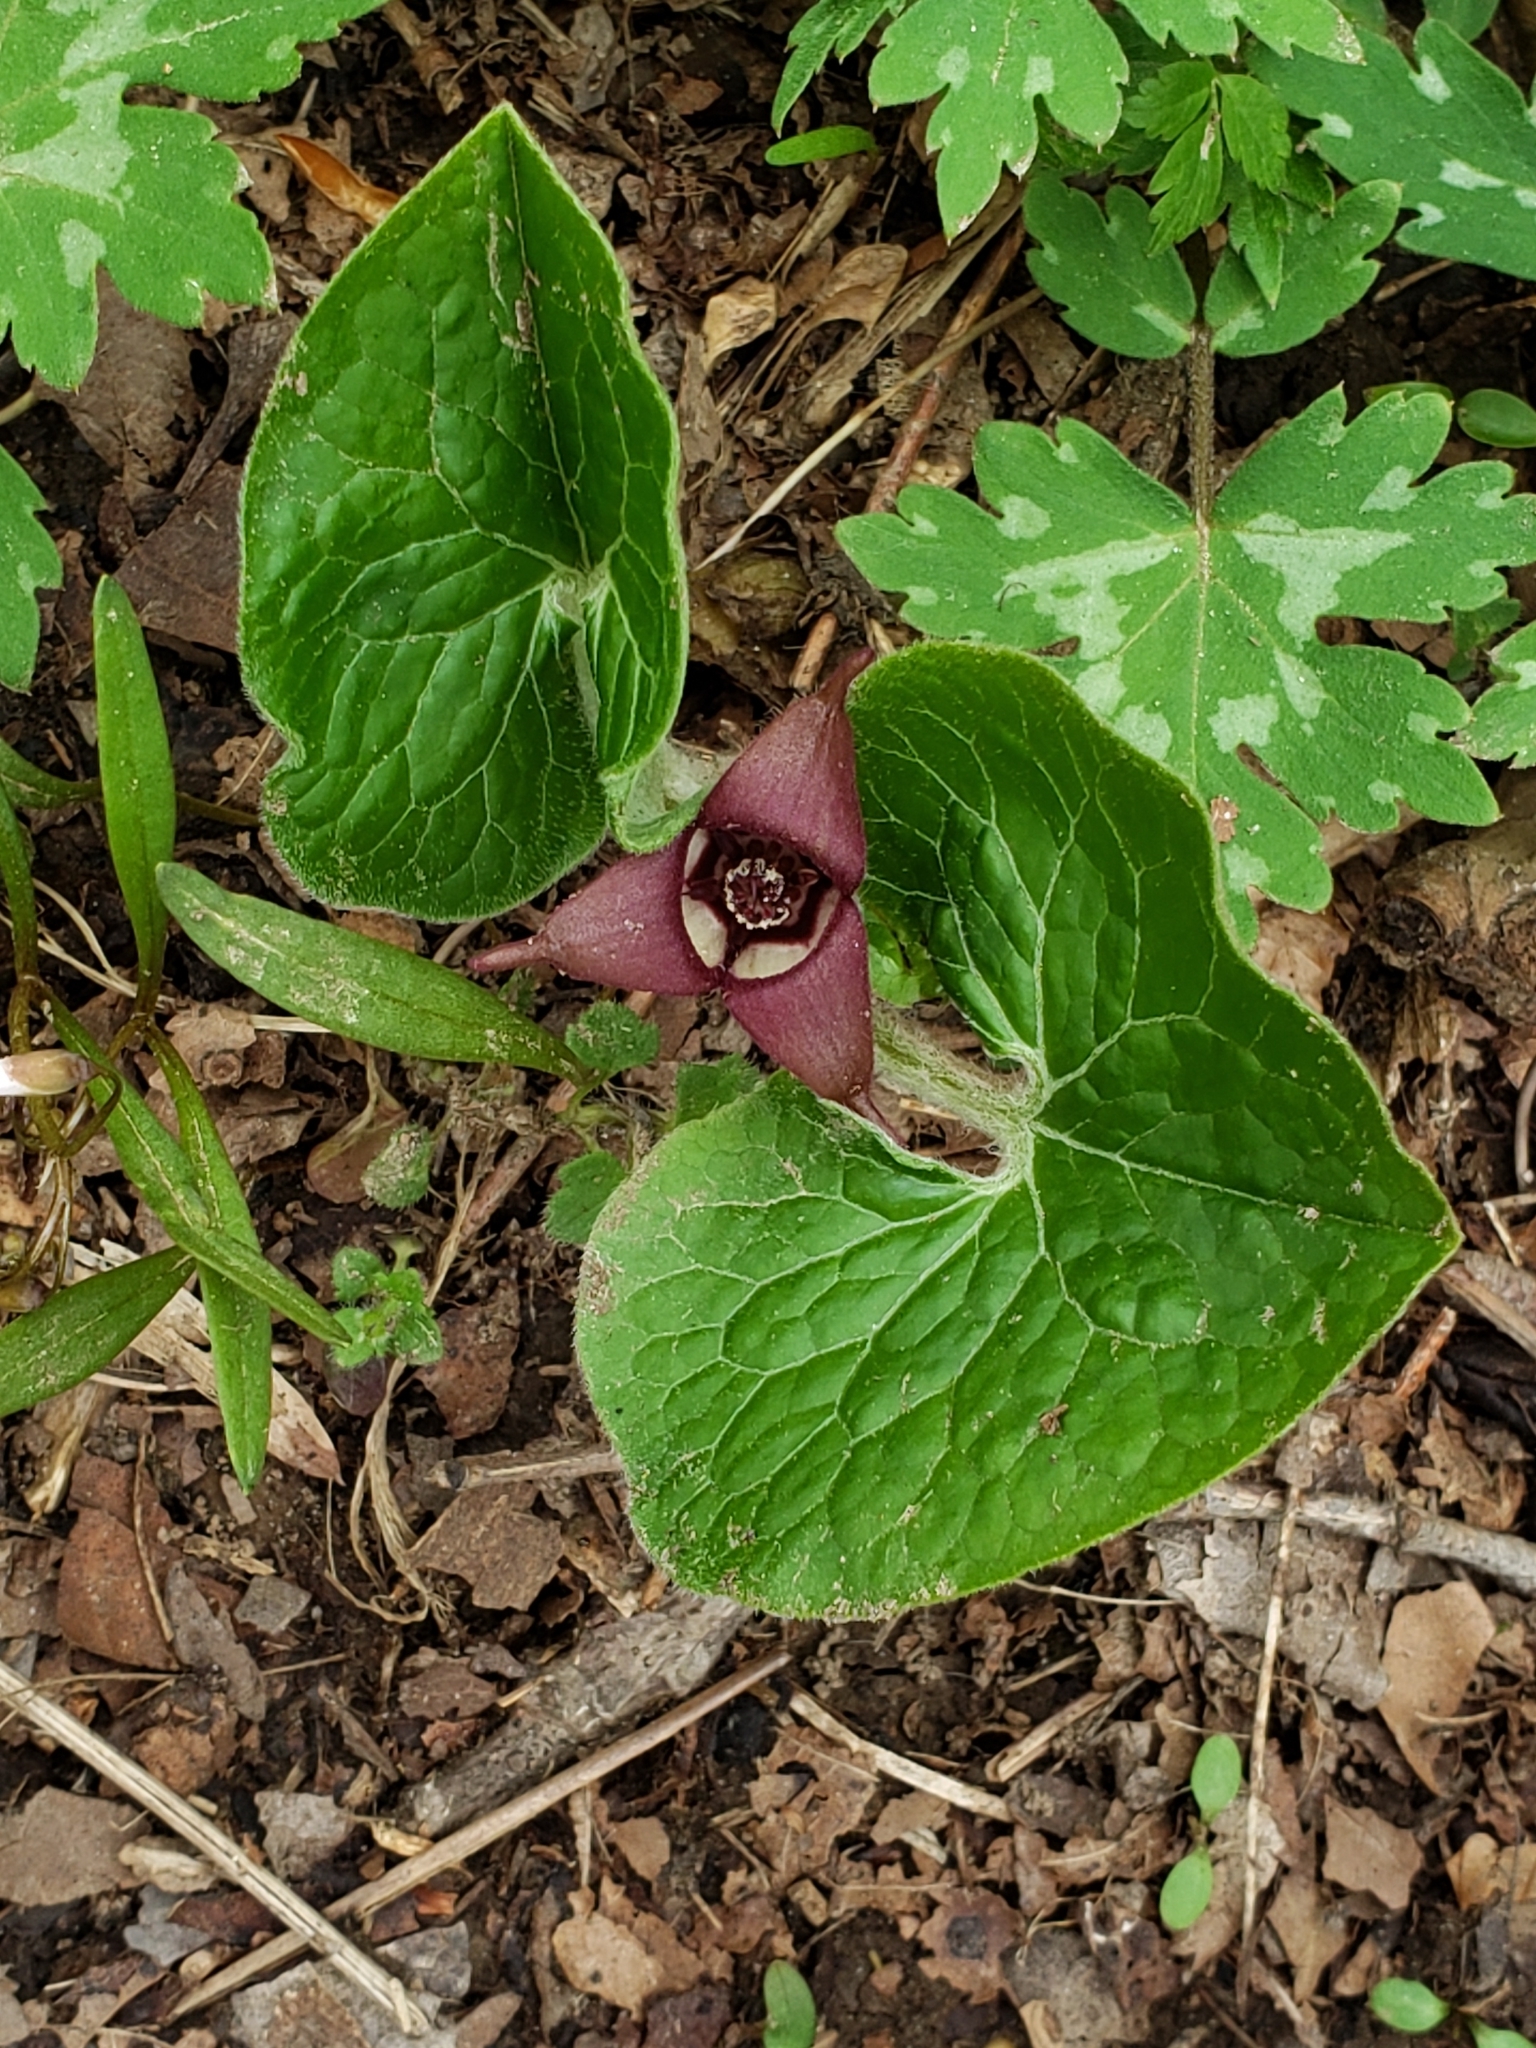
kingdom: Plantae
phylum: Tracheophyta
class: Magnoliopsida
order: Piperales
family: Aristolochiaceae
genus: Asarum
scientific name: Asarum canadense
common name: Wild ginger
